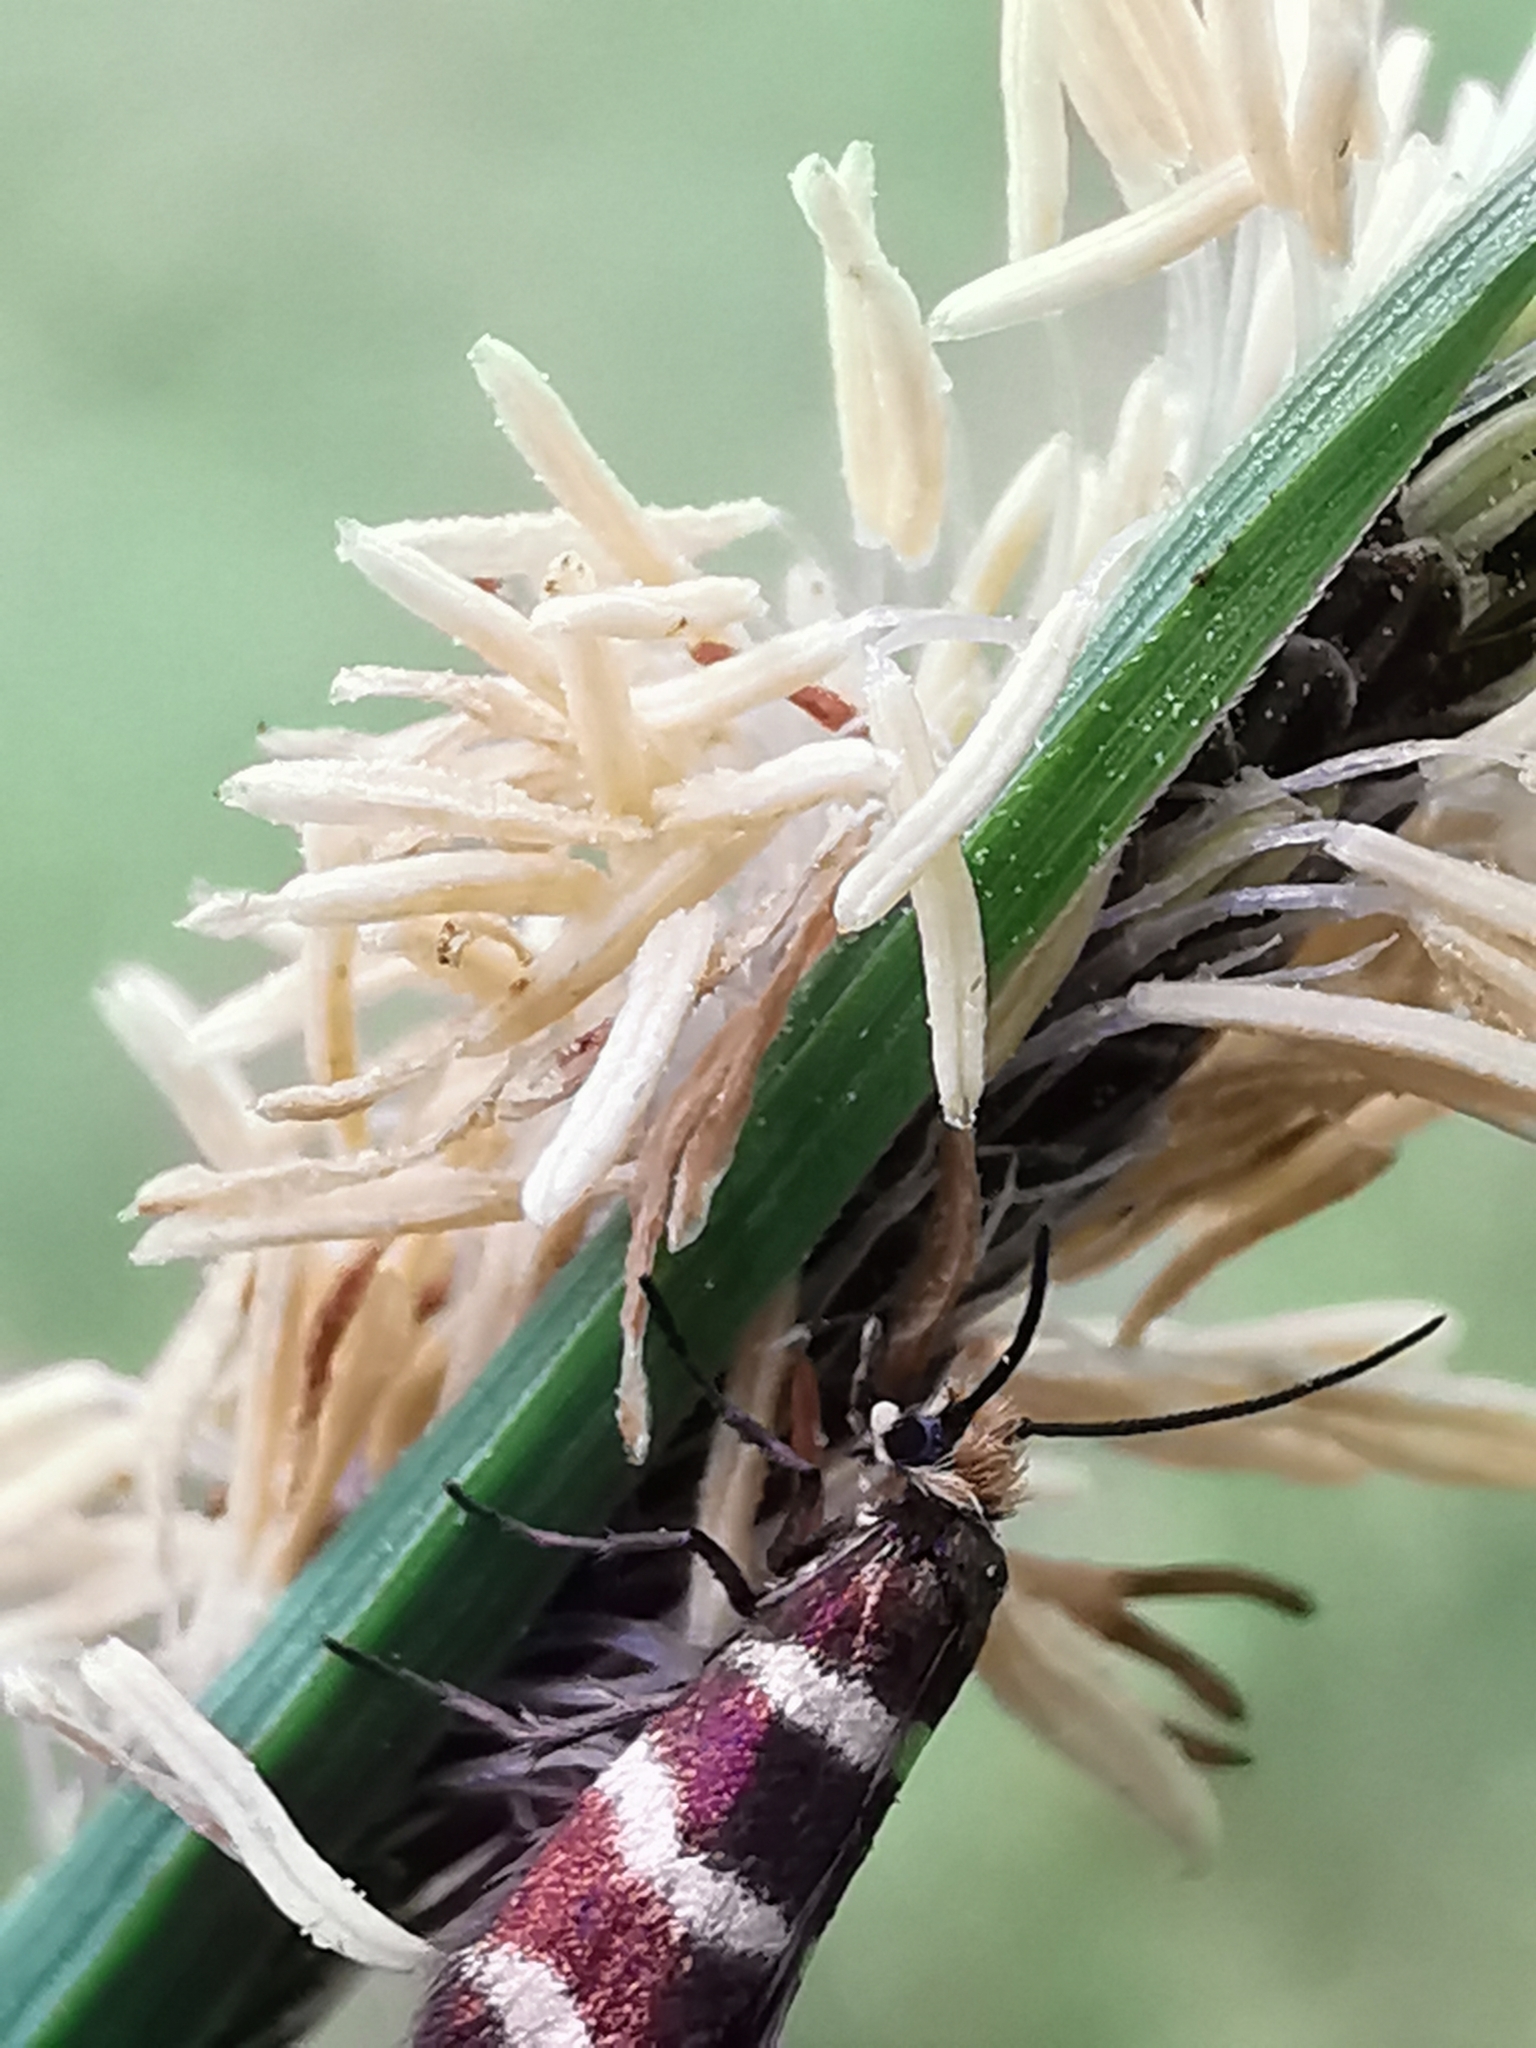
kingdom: Animalia
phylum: Arthropoda
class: Insecta
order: Lepidoptera
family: Micropterigidae
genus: Micropterix
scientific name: Micropterix aureatella
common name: Yellow-barred gold
